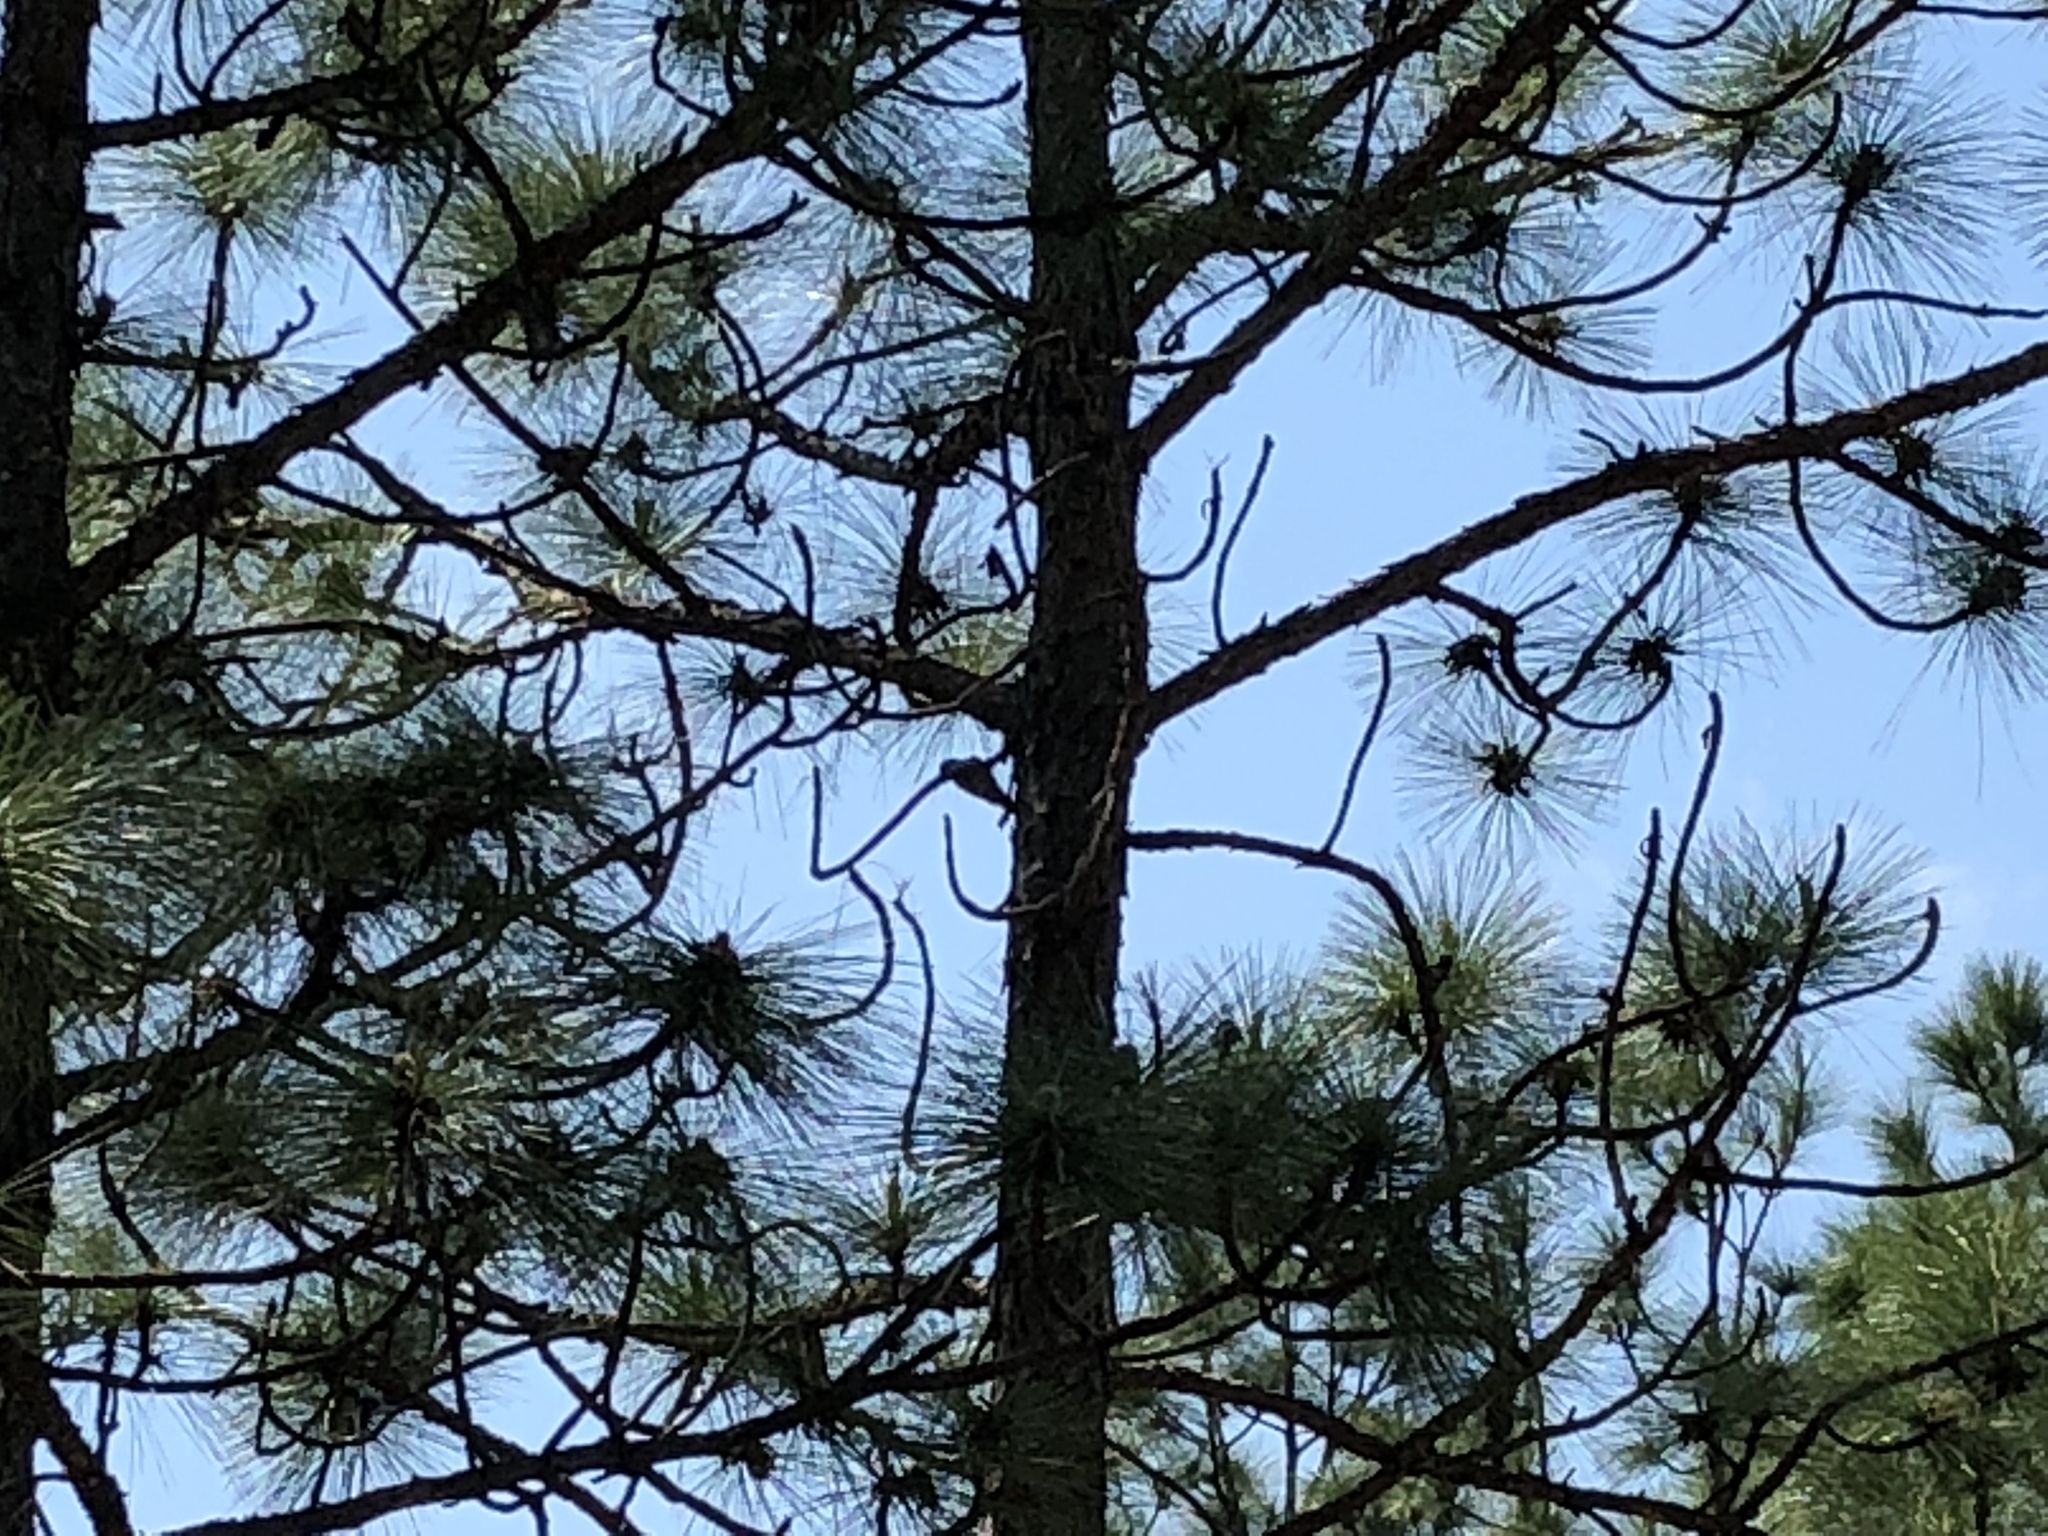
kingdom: Animalia
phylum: Chordata
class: Aves
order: Piciformes
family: Picidae
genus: Leuconotopicus
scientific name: Leuconotopicus borealis
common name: Red-cockaded woodpecker
